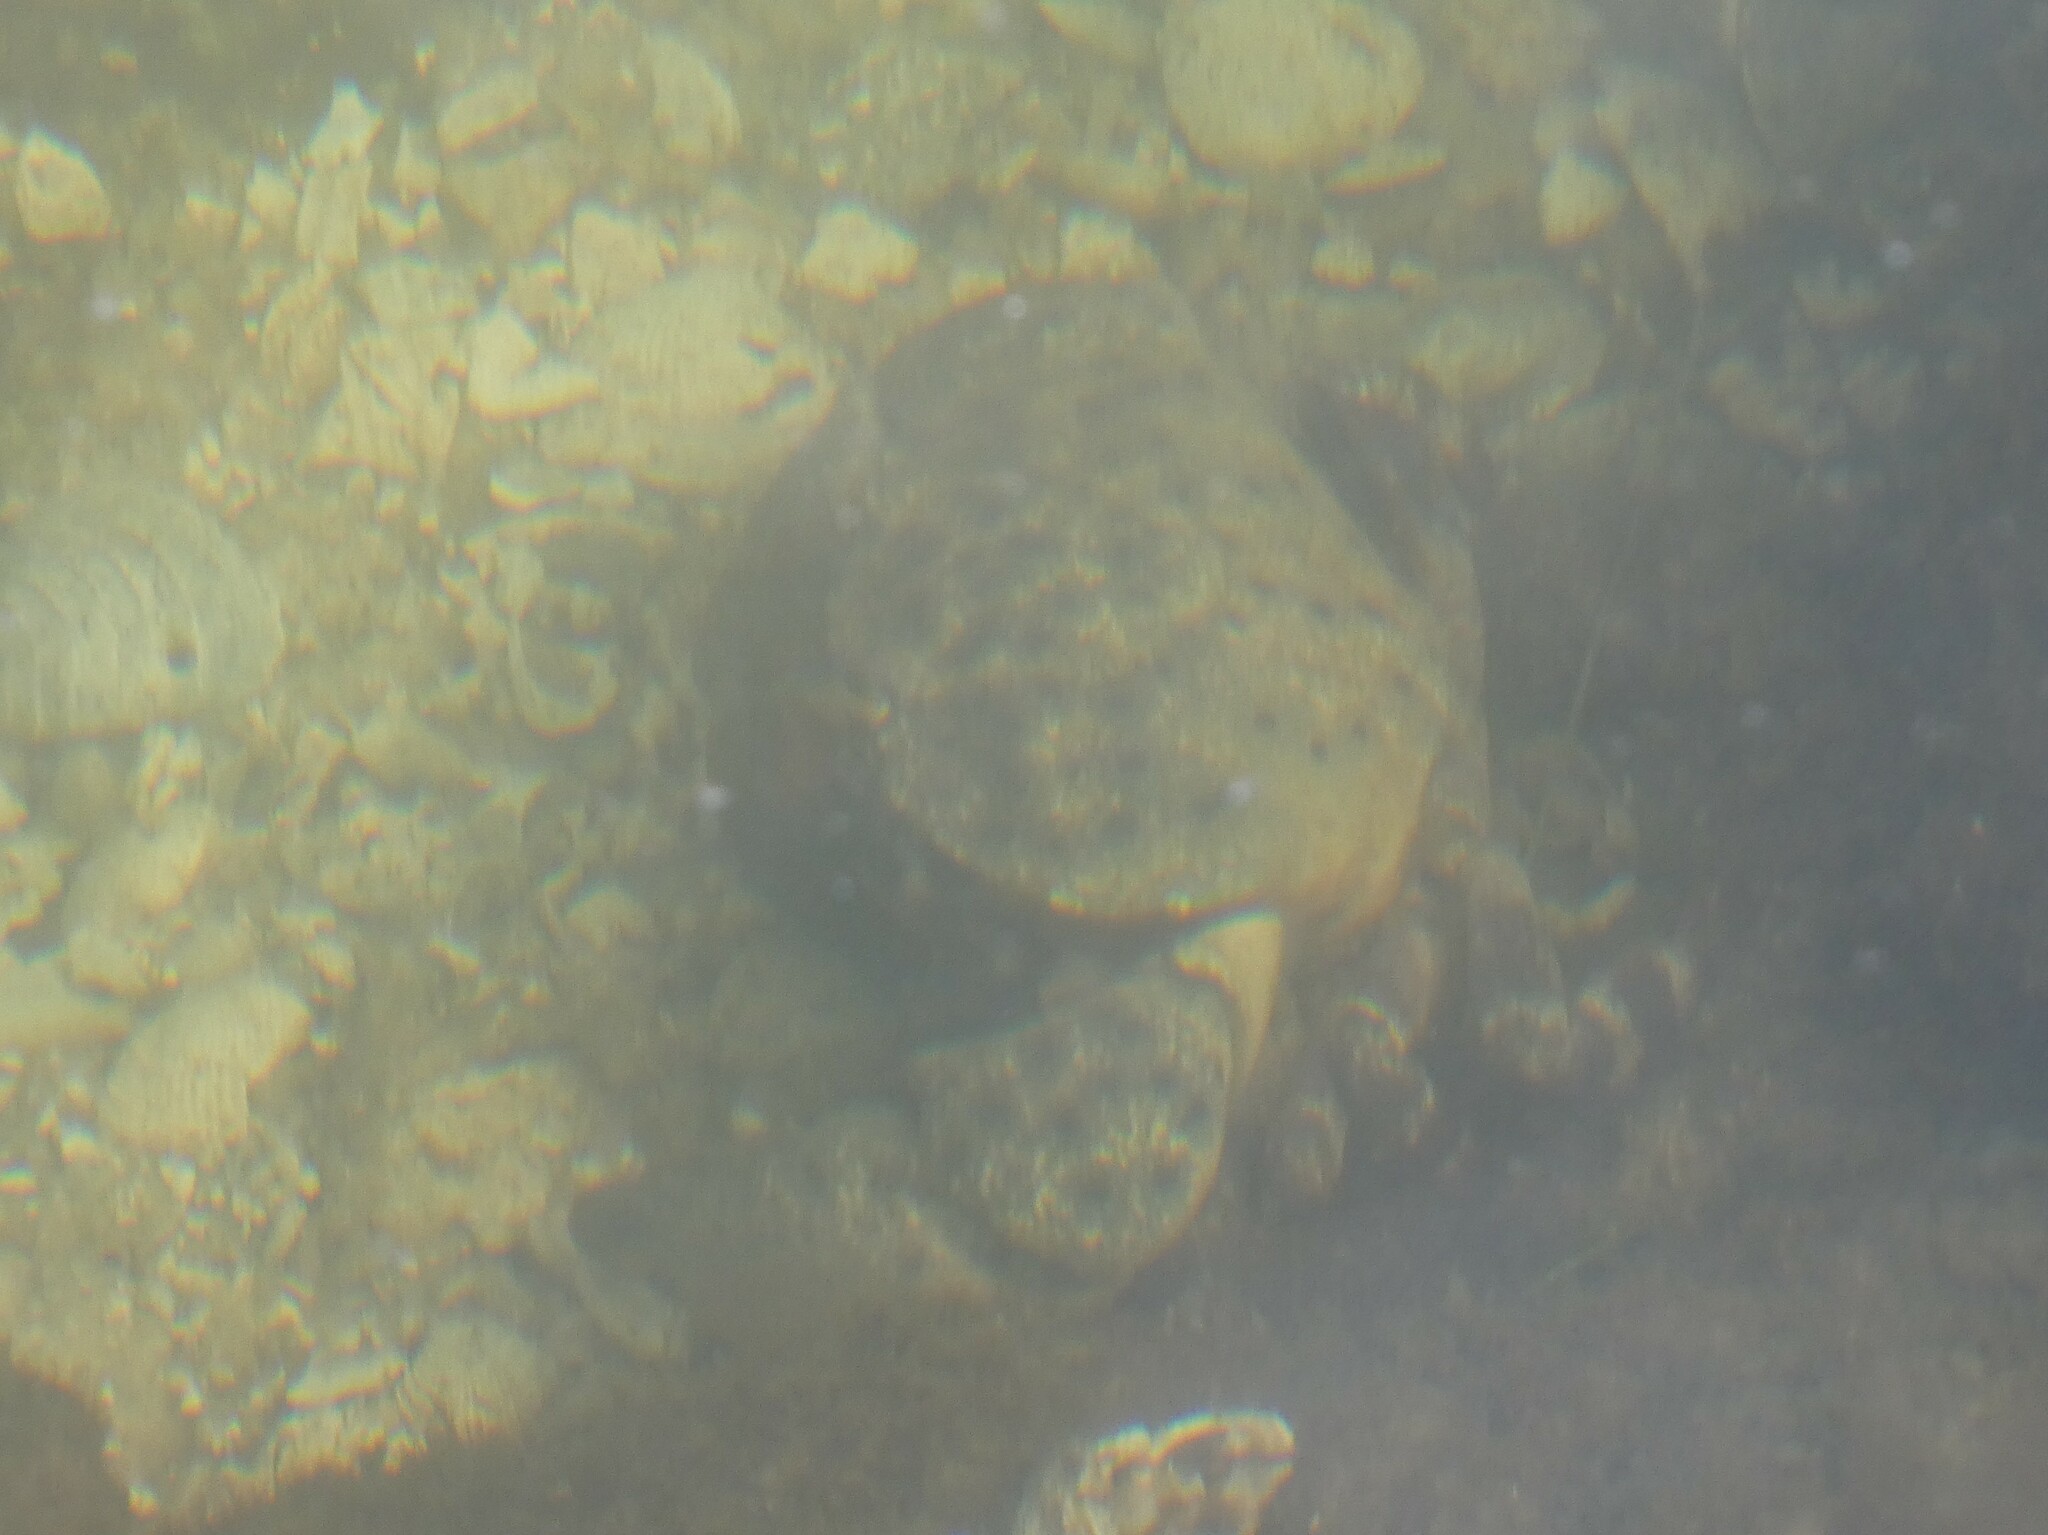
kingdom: Animalia
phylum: Arthropoda
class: Malacostraca
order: Decapoda
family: Menippidae
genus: Menippe
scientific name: Menippe mercenaria
